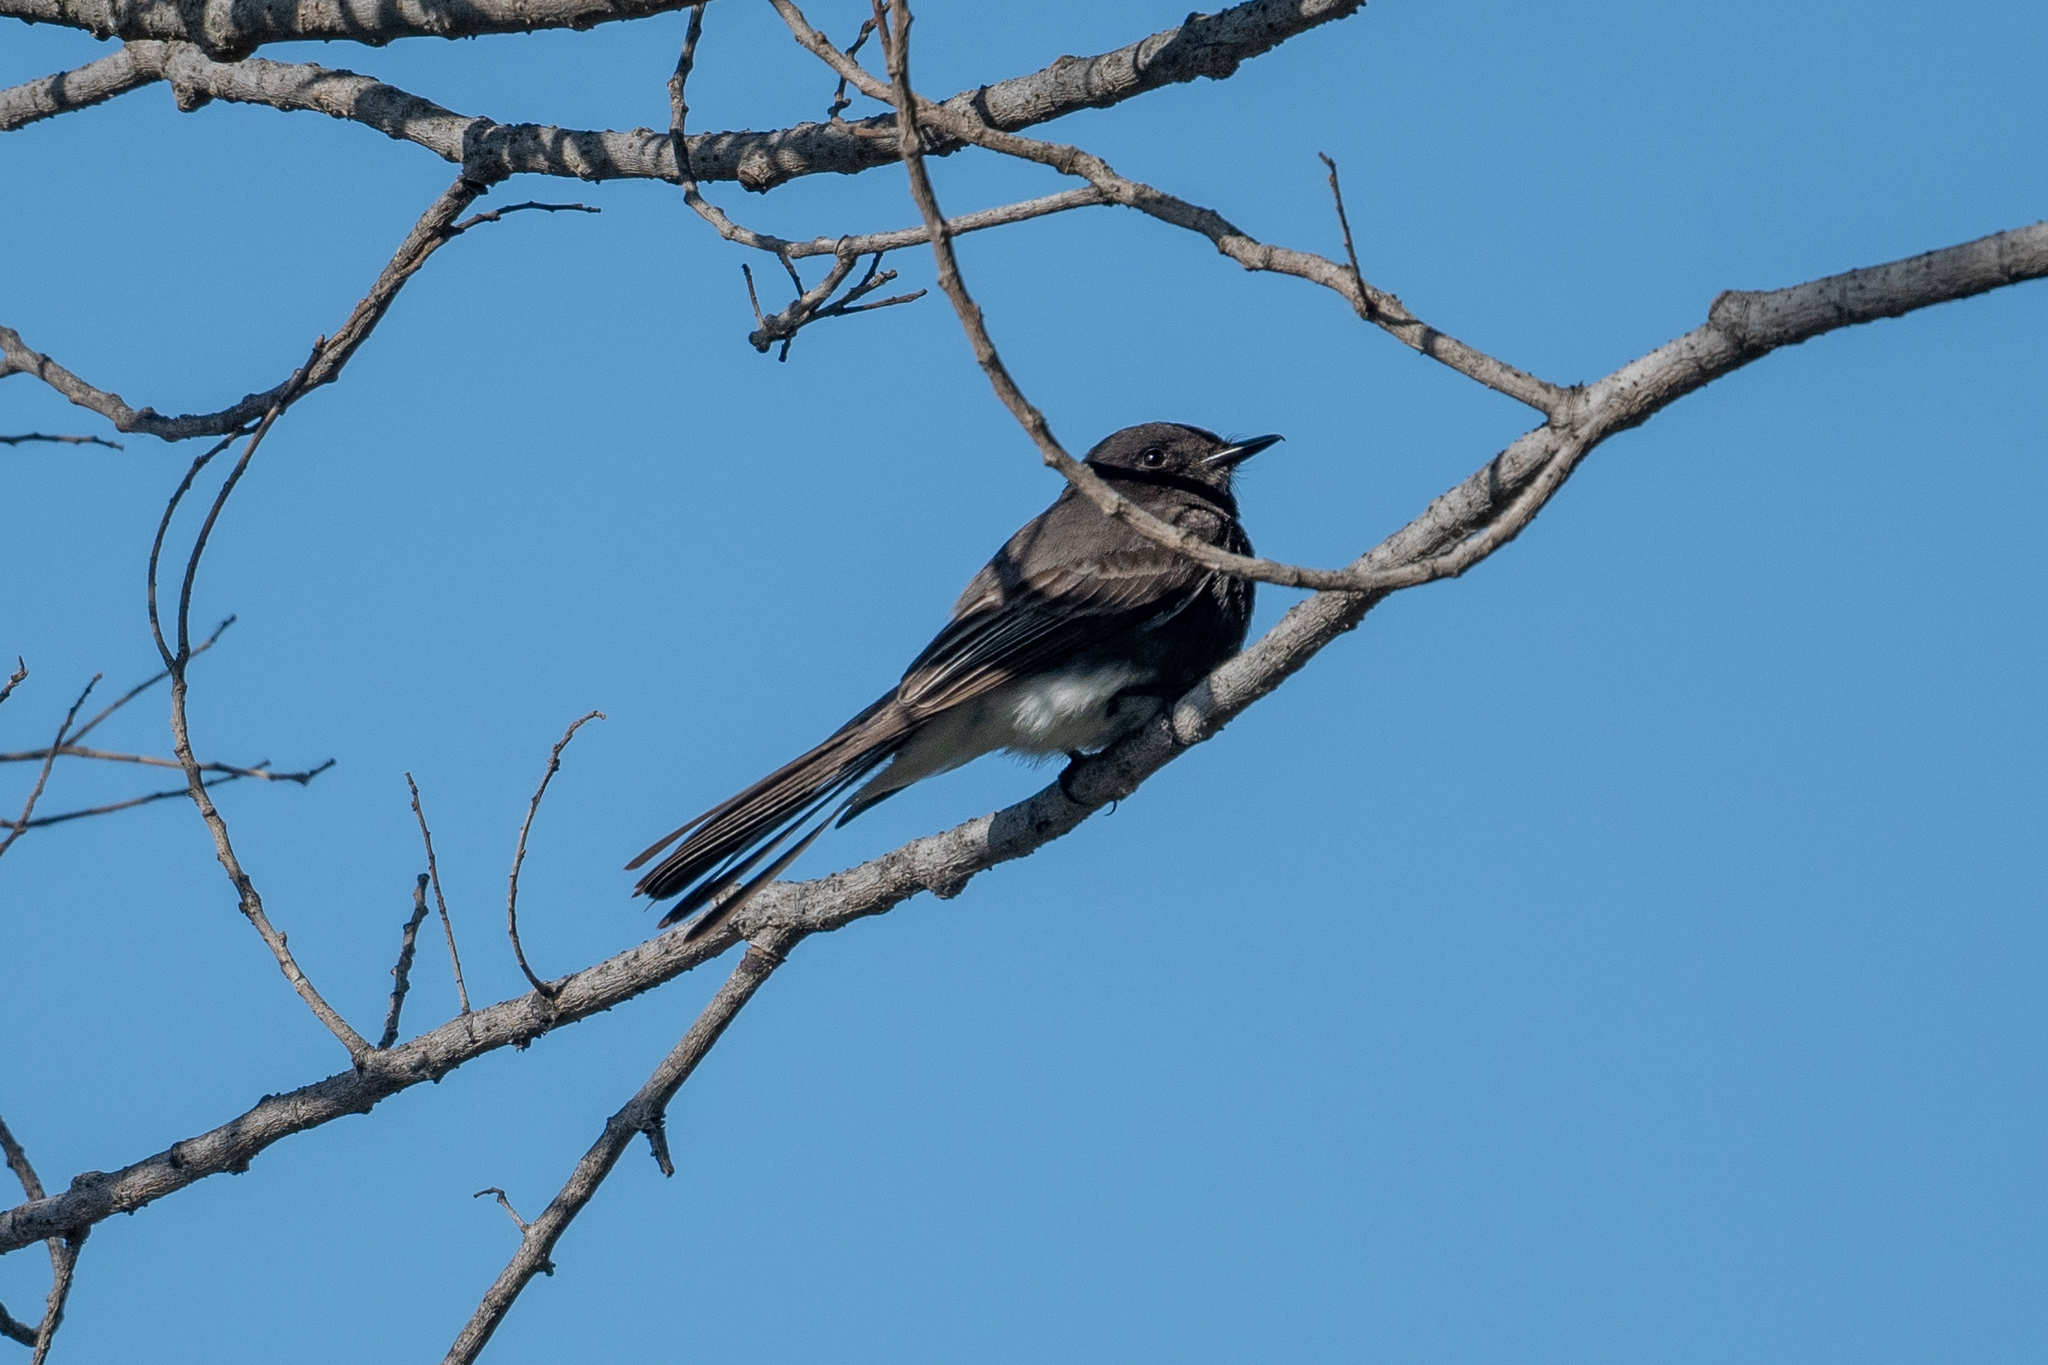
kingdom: Animalia
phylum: Chordata
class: Aves
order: Passeriformes
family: Tyrannidae
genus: Sayornis
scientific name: Sayornis nigricans
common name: Black phoebe
